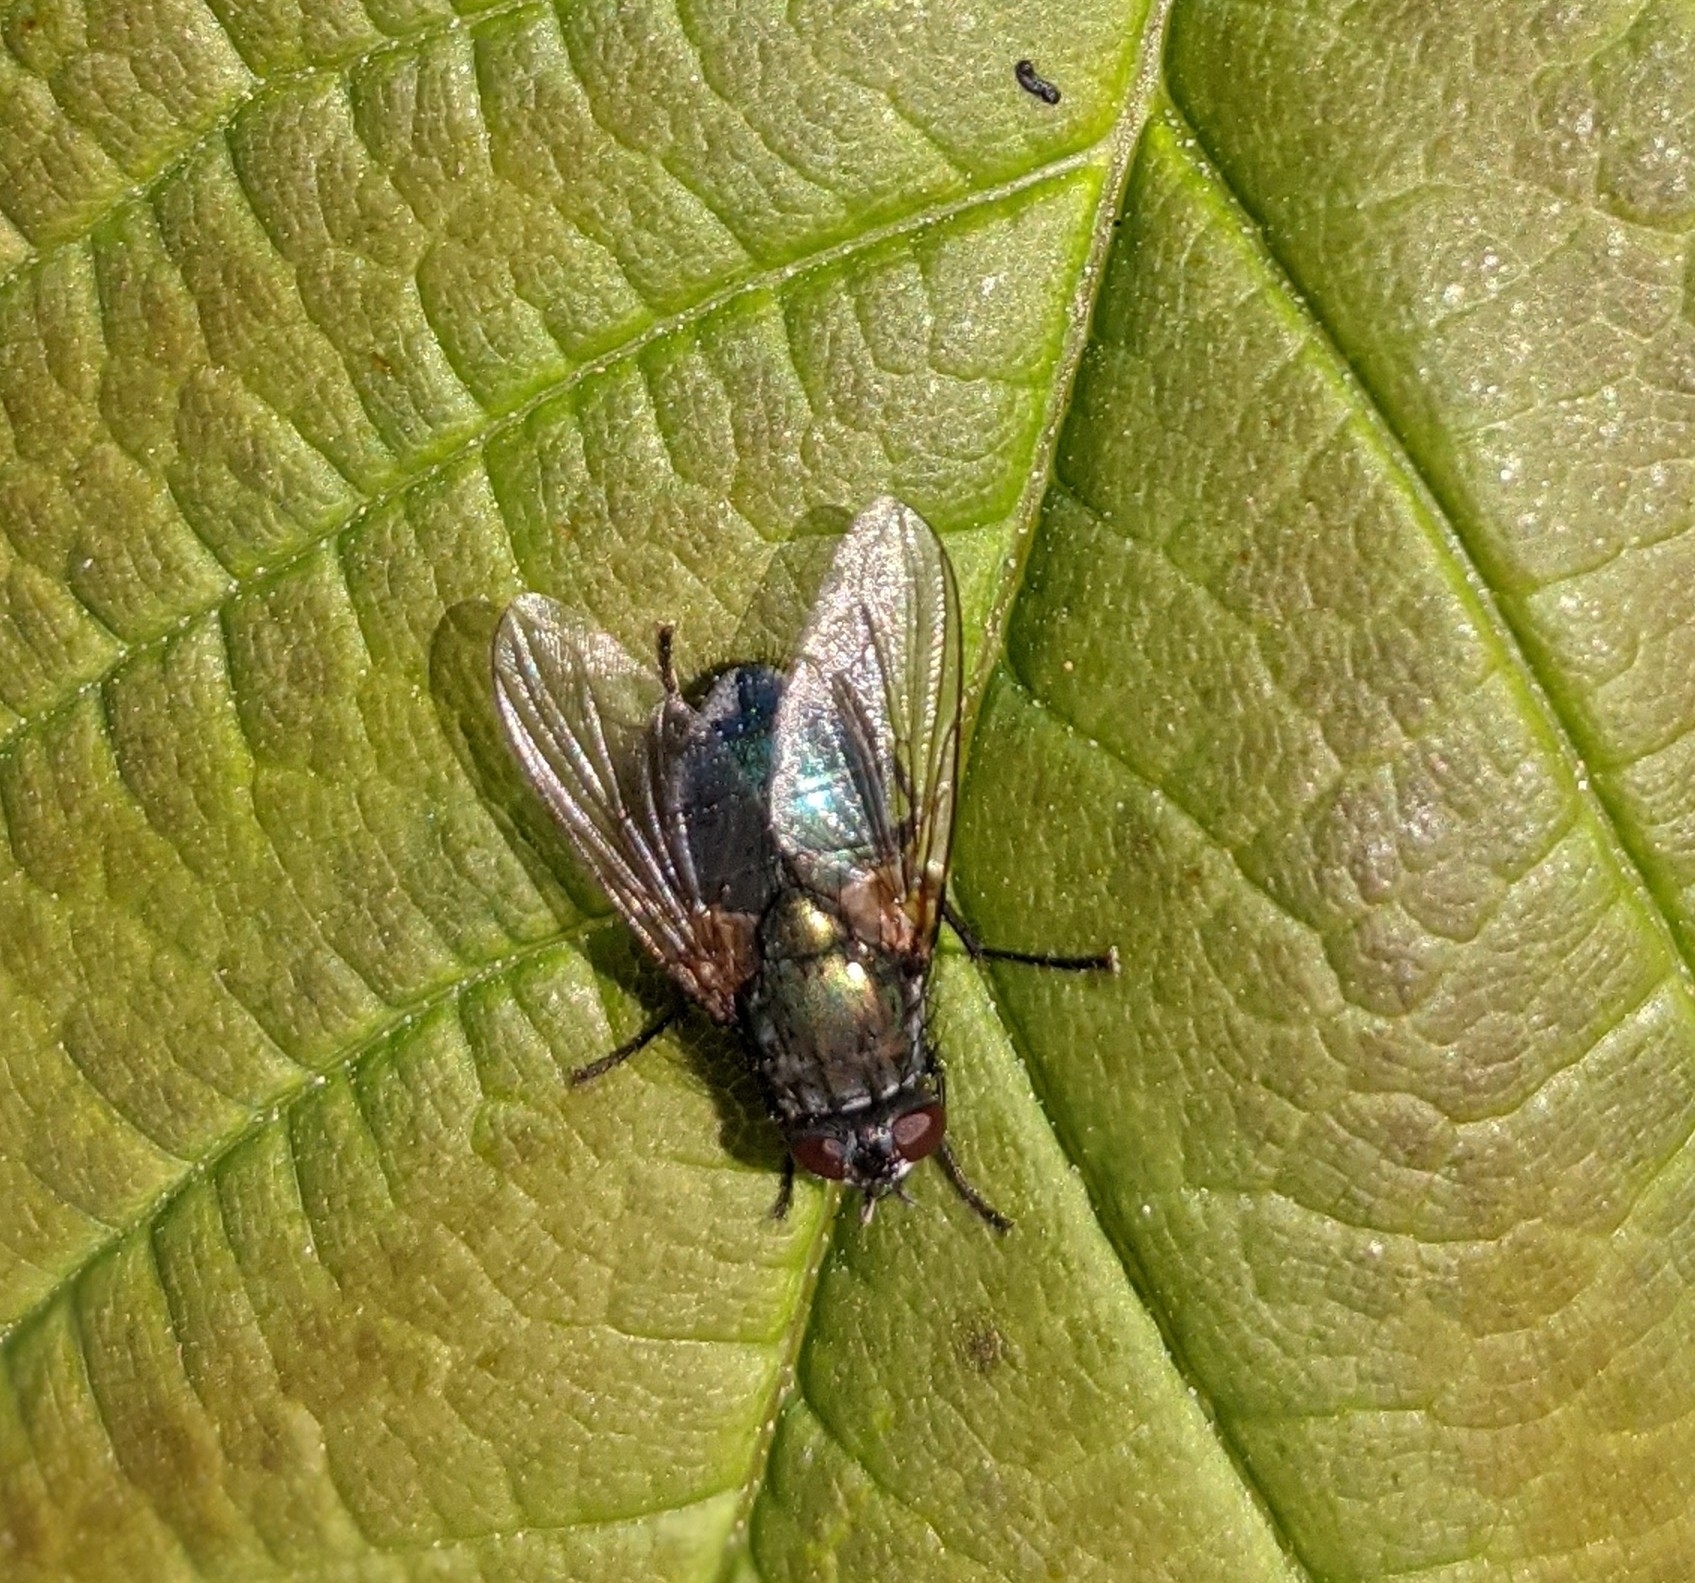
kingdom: Animalia
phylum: Arthropoda
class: Insecta
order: Diptera
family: Muscidae
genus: Dasyphora
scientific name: Dasyphora cyanella
